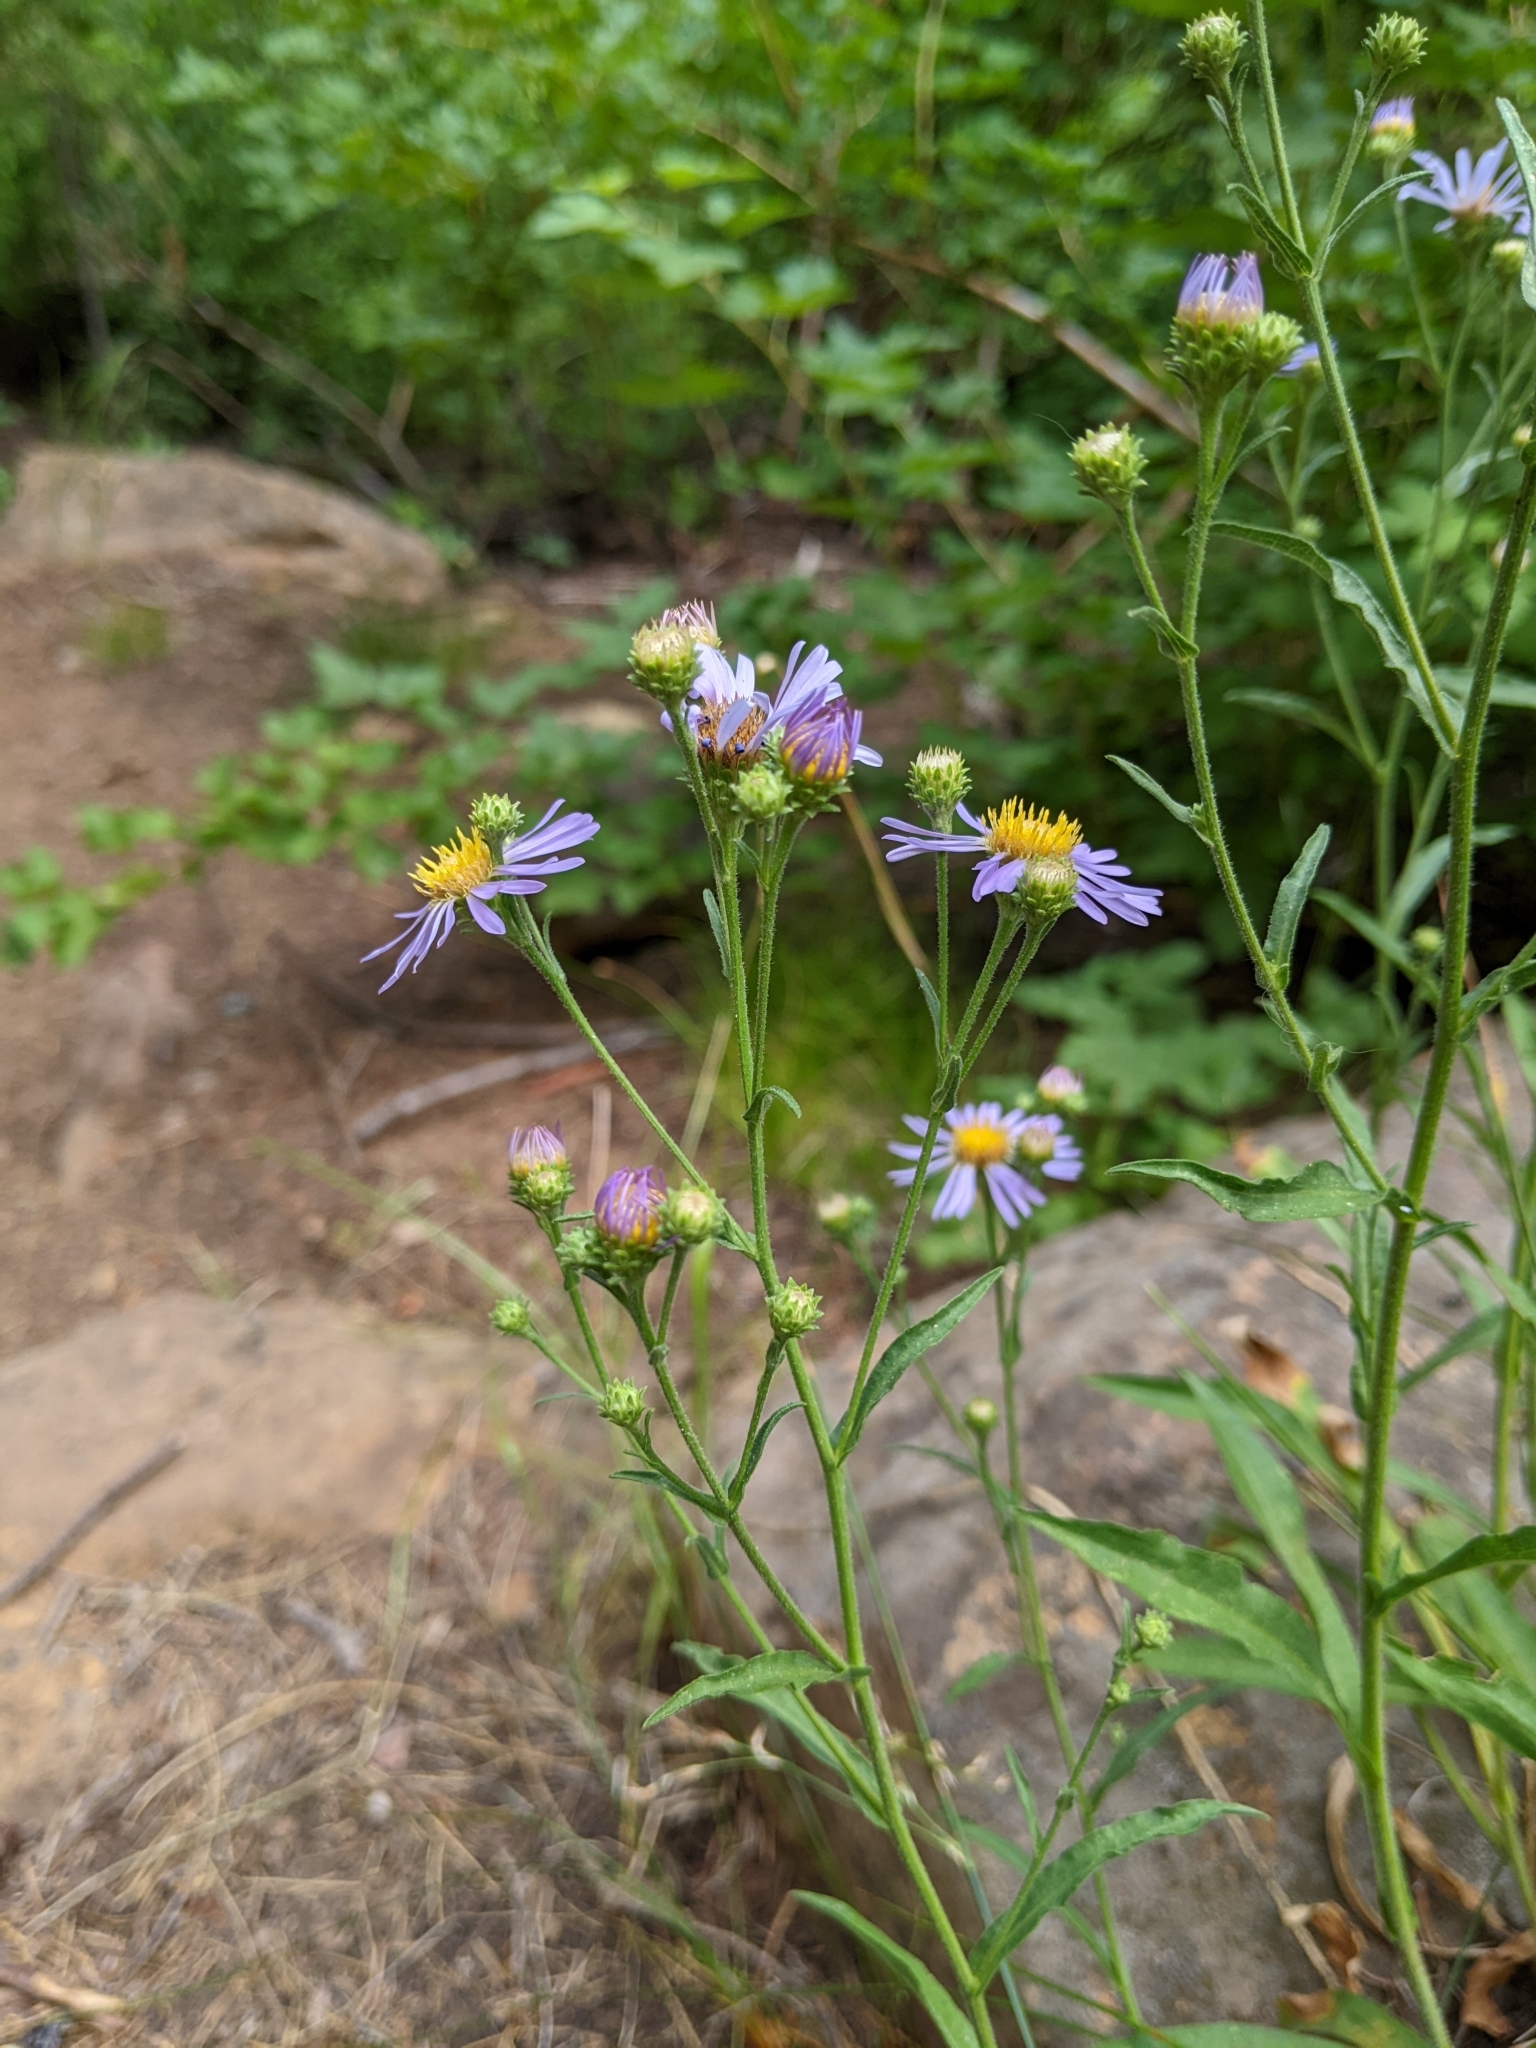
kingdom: Plantae
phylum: Tracheophyta
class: Magnoliopsida
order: Asterales
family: Asteraceae
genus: Symphyotrichum
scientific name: Symphyotrichum spathulatum
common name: Western mountain aster
